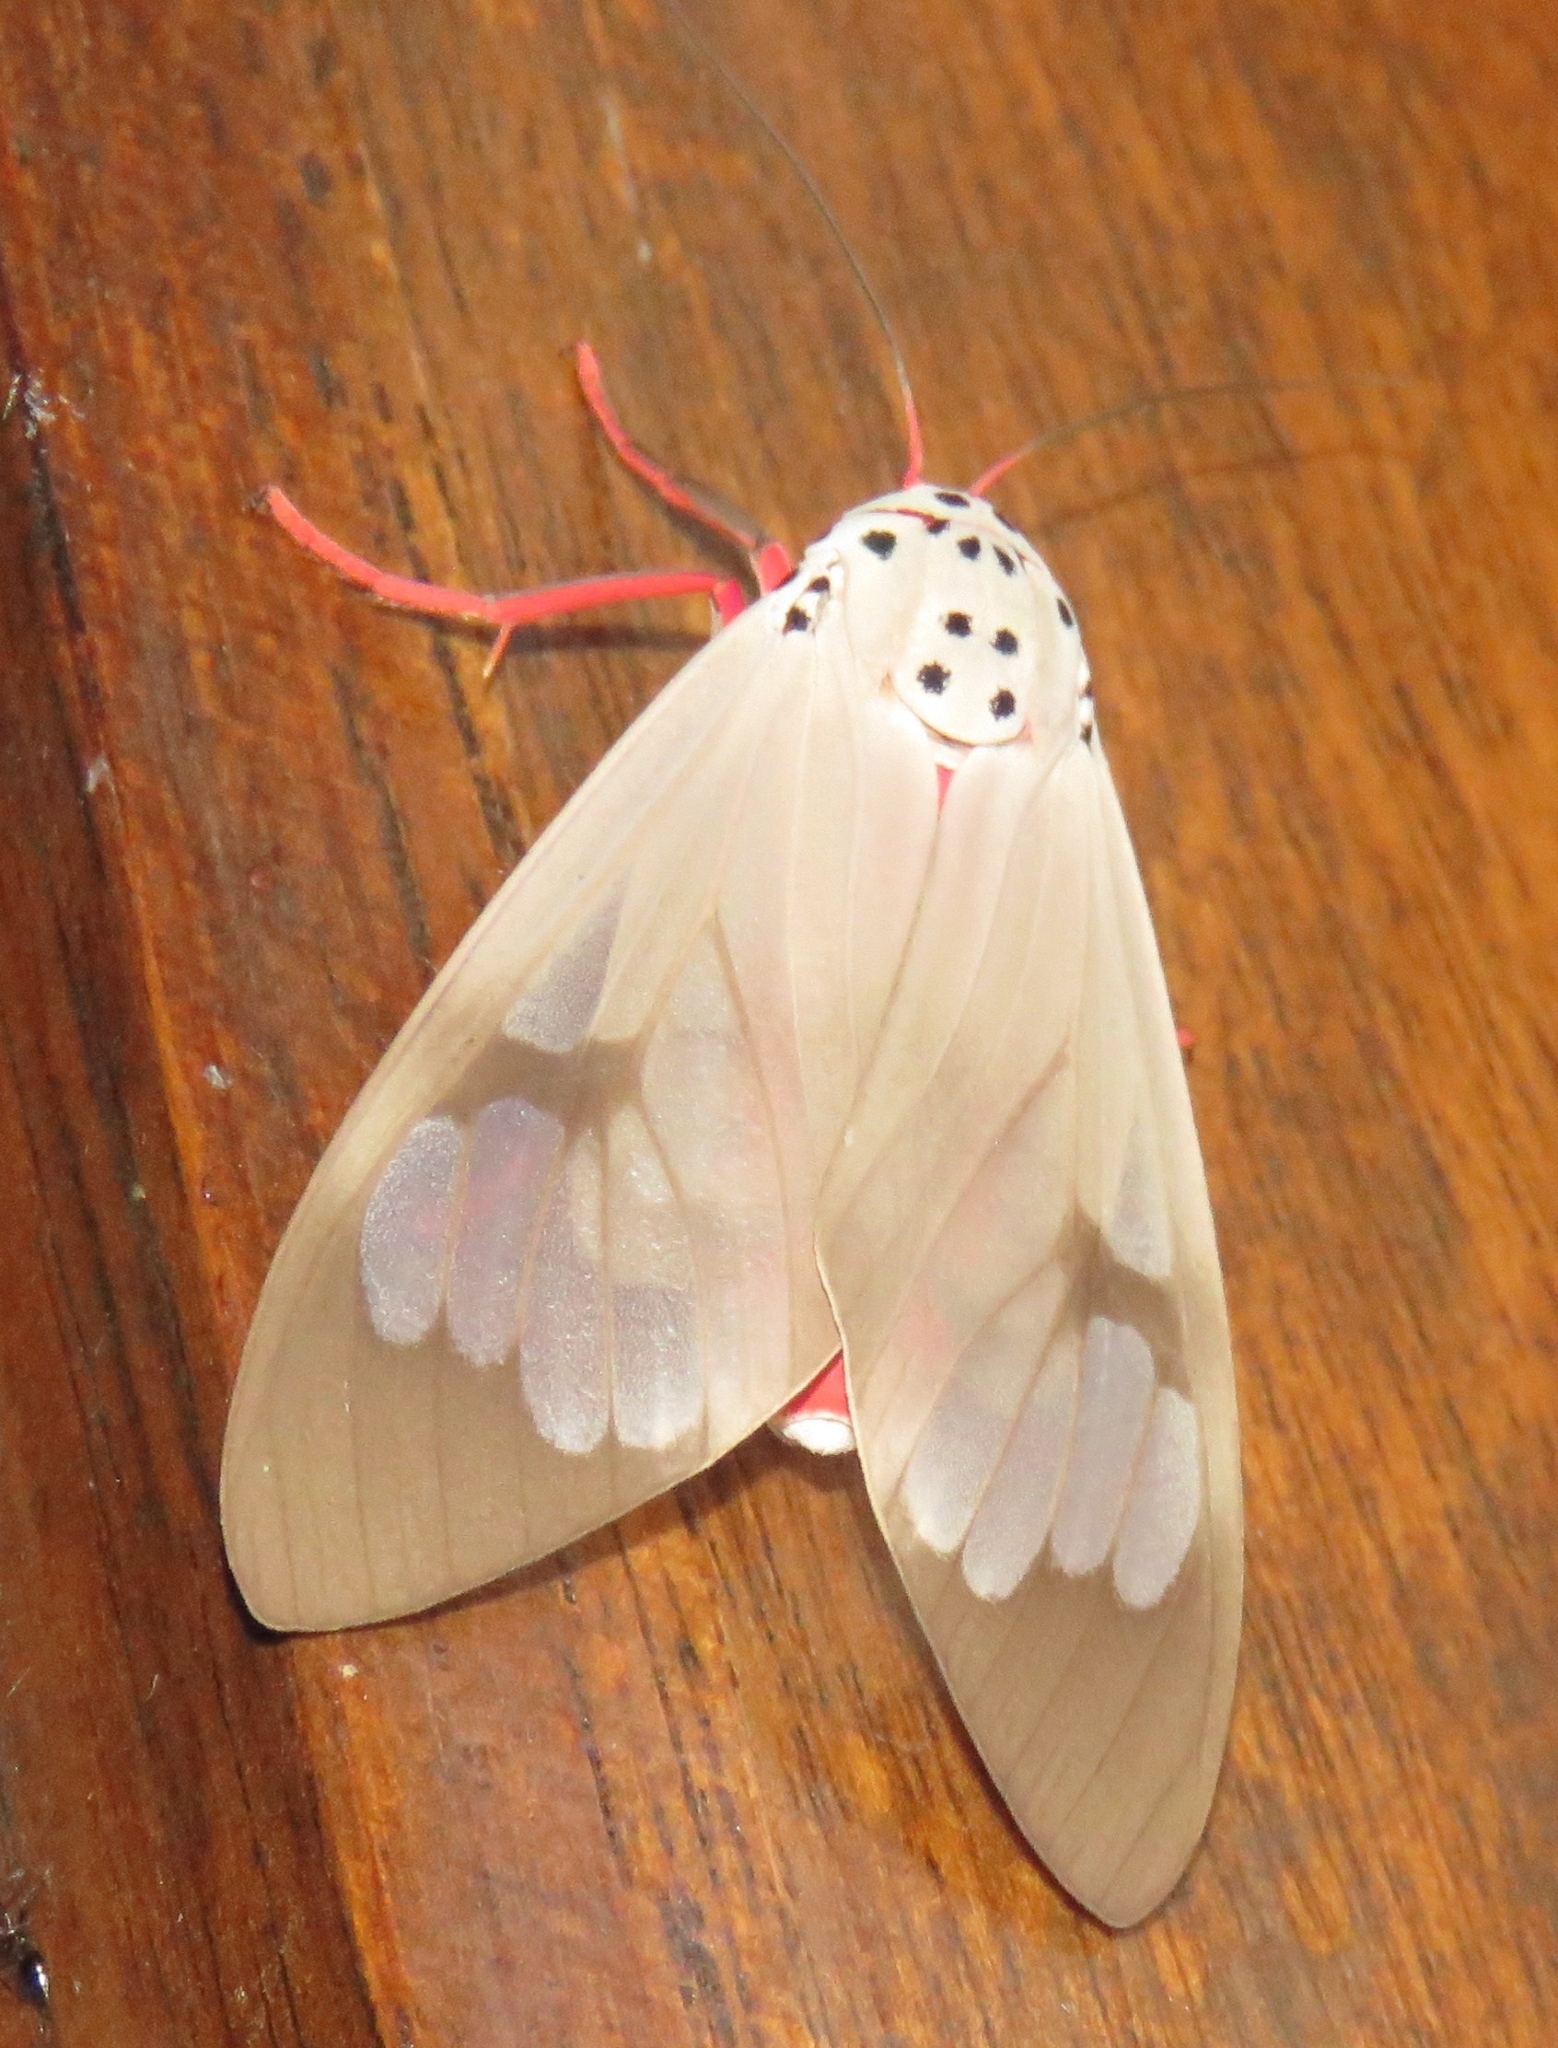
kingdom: Animalia
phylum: Arthropoda
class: Insecta
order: Lepidoptera
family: Erebidae
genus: Amerila
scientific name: Amerila astreus
